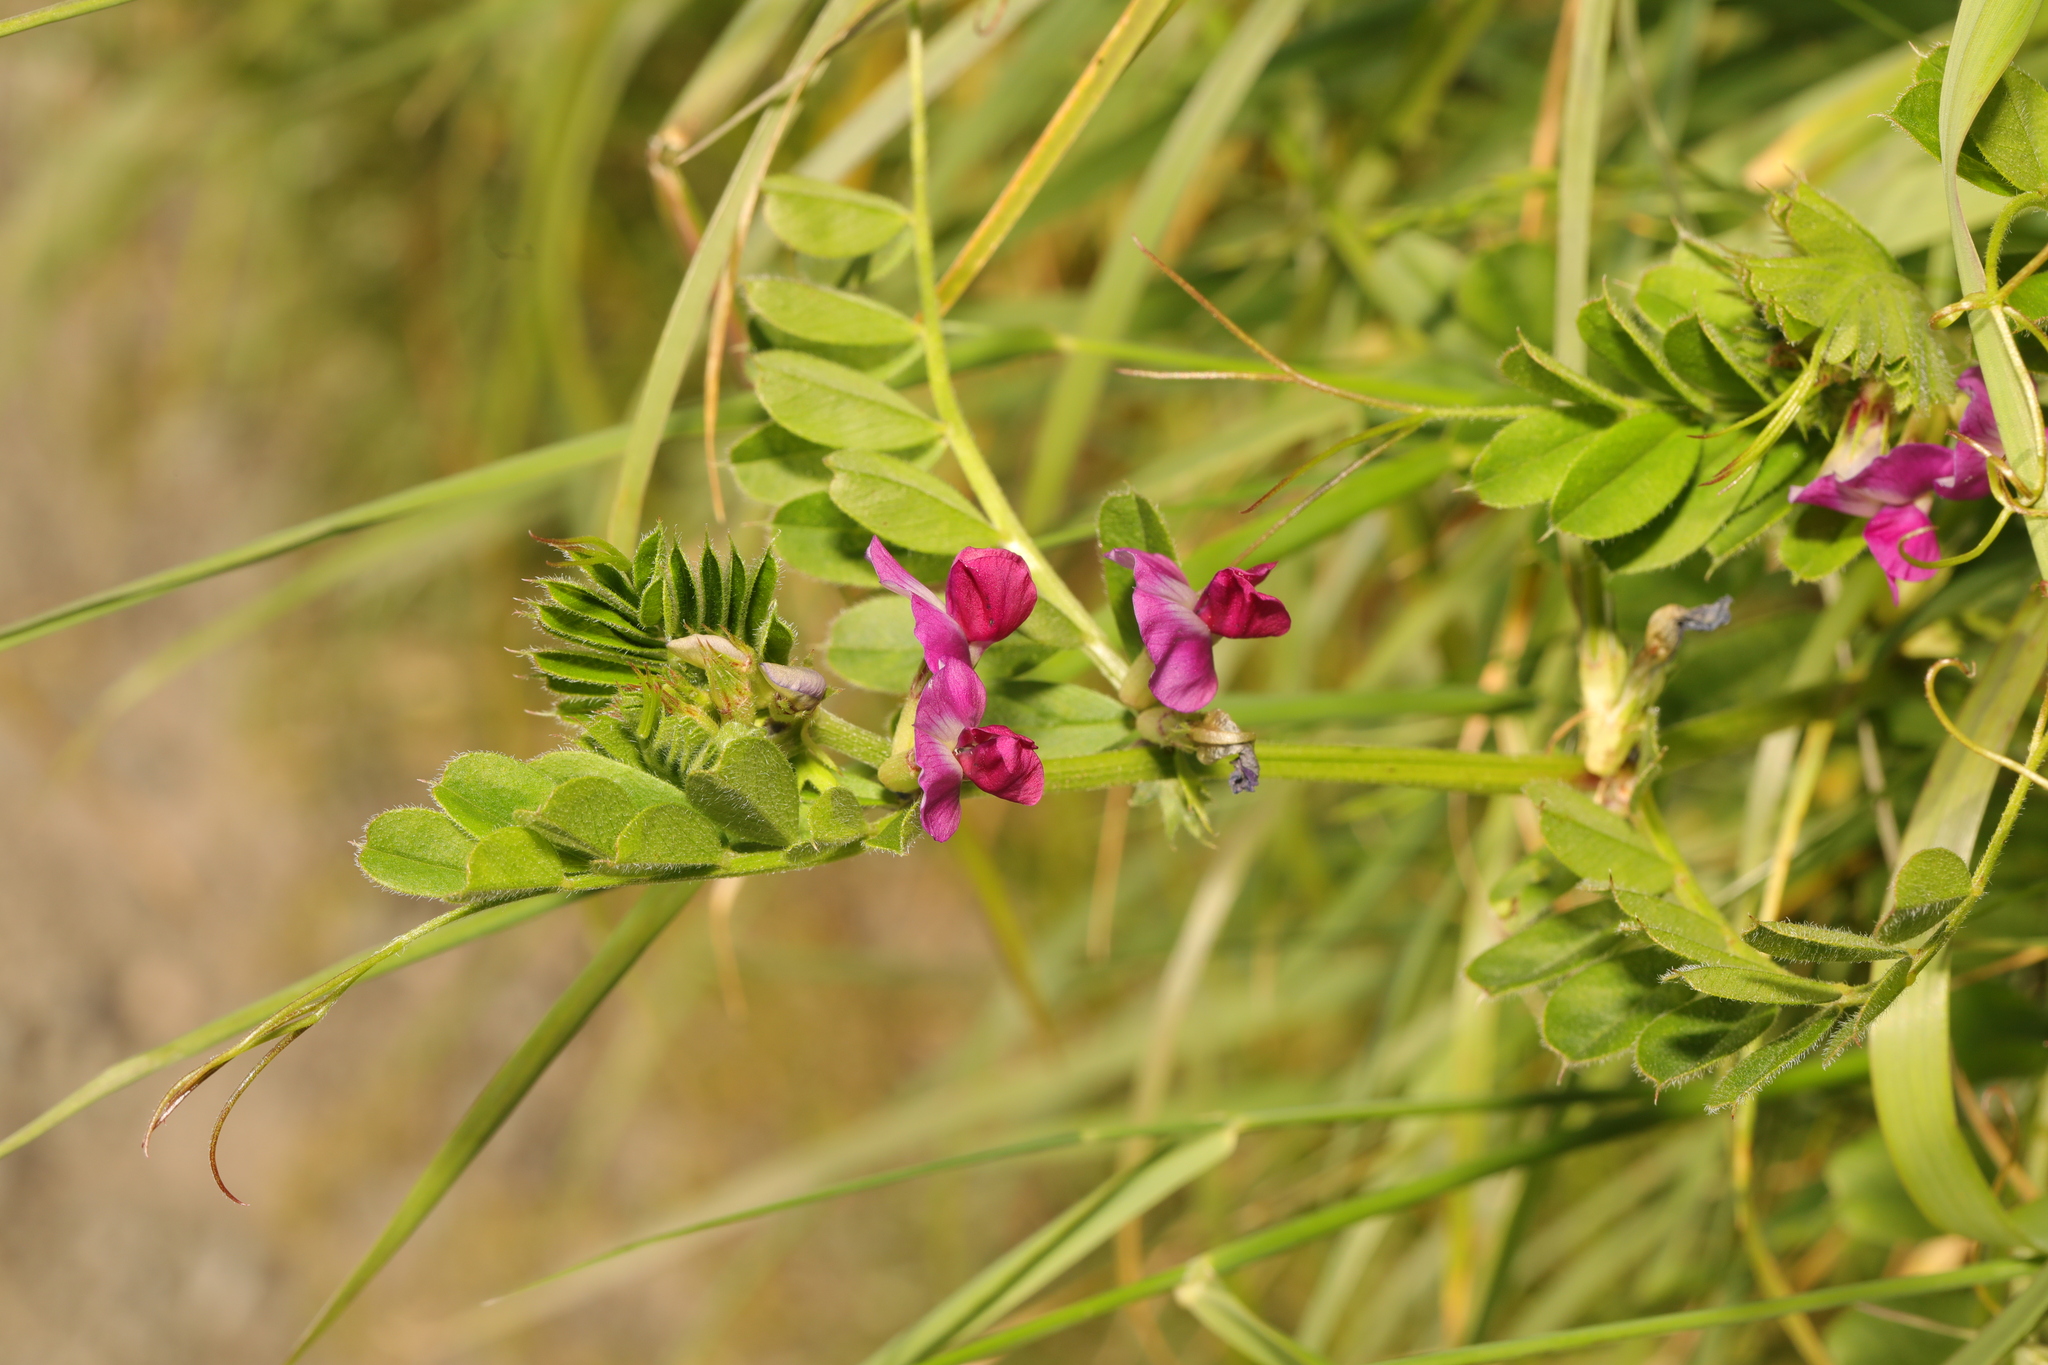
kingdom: Plantae
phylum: Tracheophyta
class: Magnoliopsida
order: Fabales
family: Fabaceae
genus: Vicia
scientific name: Vicia sativa
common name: Garden vetch
